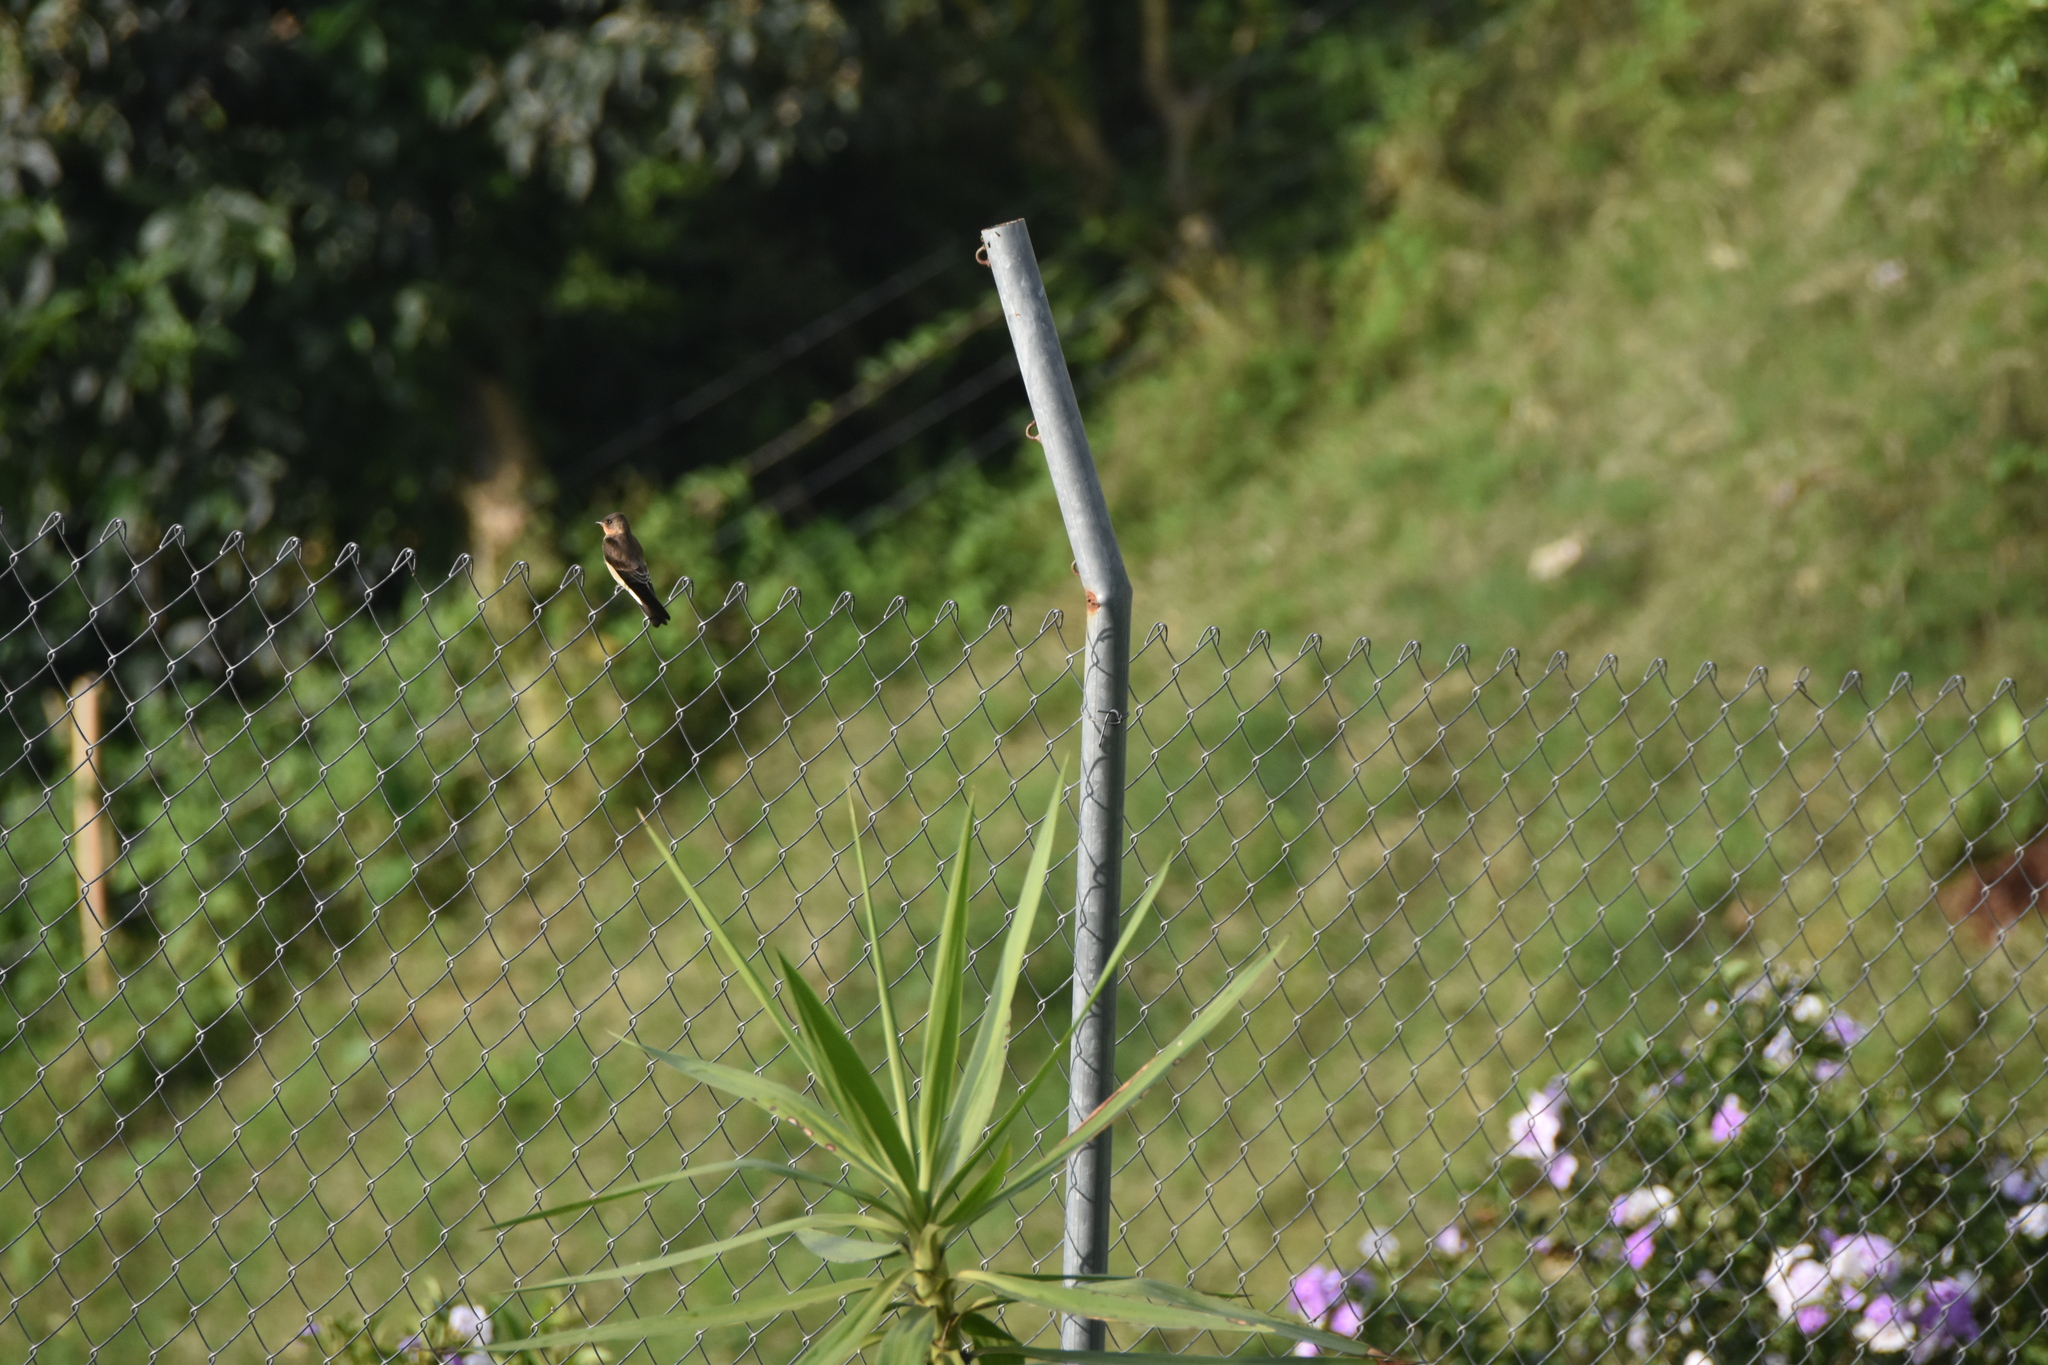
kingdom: Animalia
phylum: Chordata
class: Aves
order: Passeriformes
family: Hirundinidae
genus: Stelgidopteryx
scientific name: Stelgidopteryx ruficollis
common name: Southern rough-winged swallow
